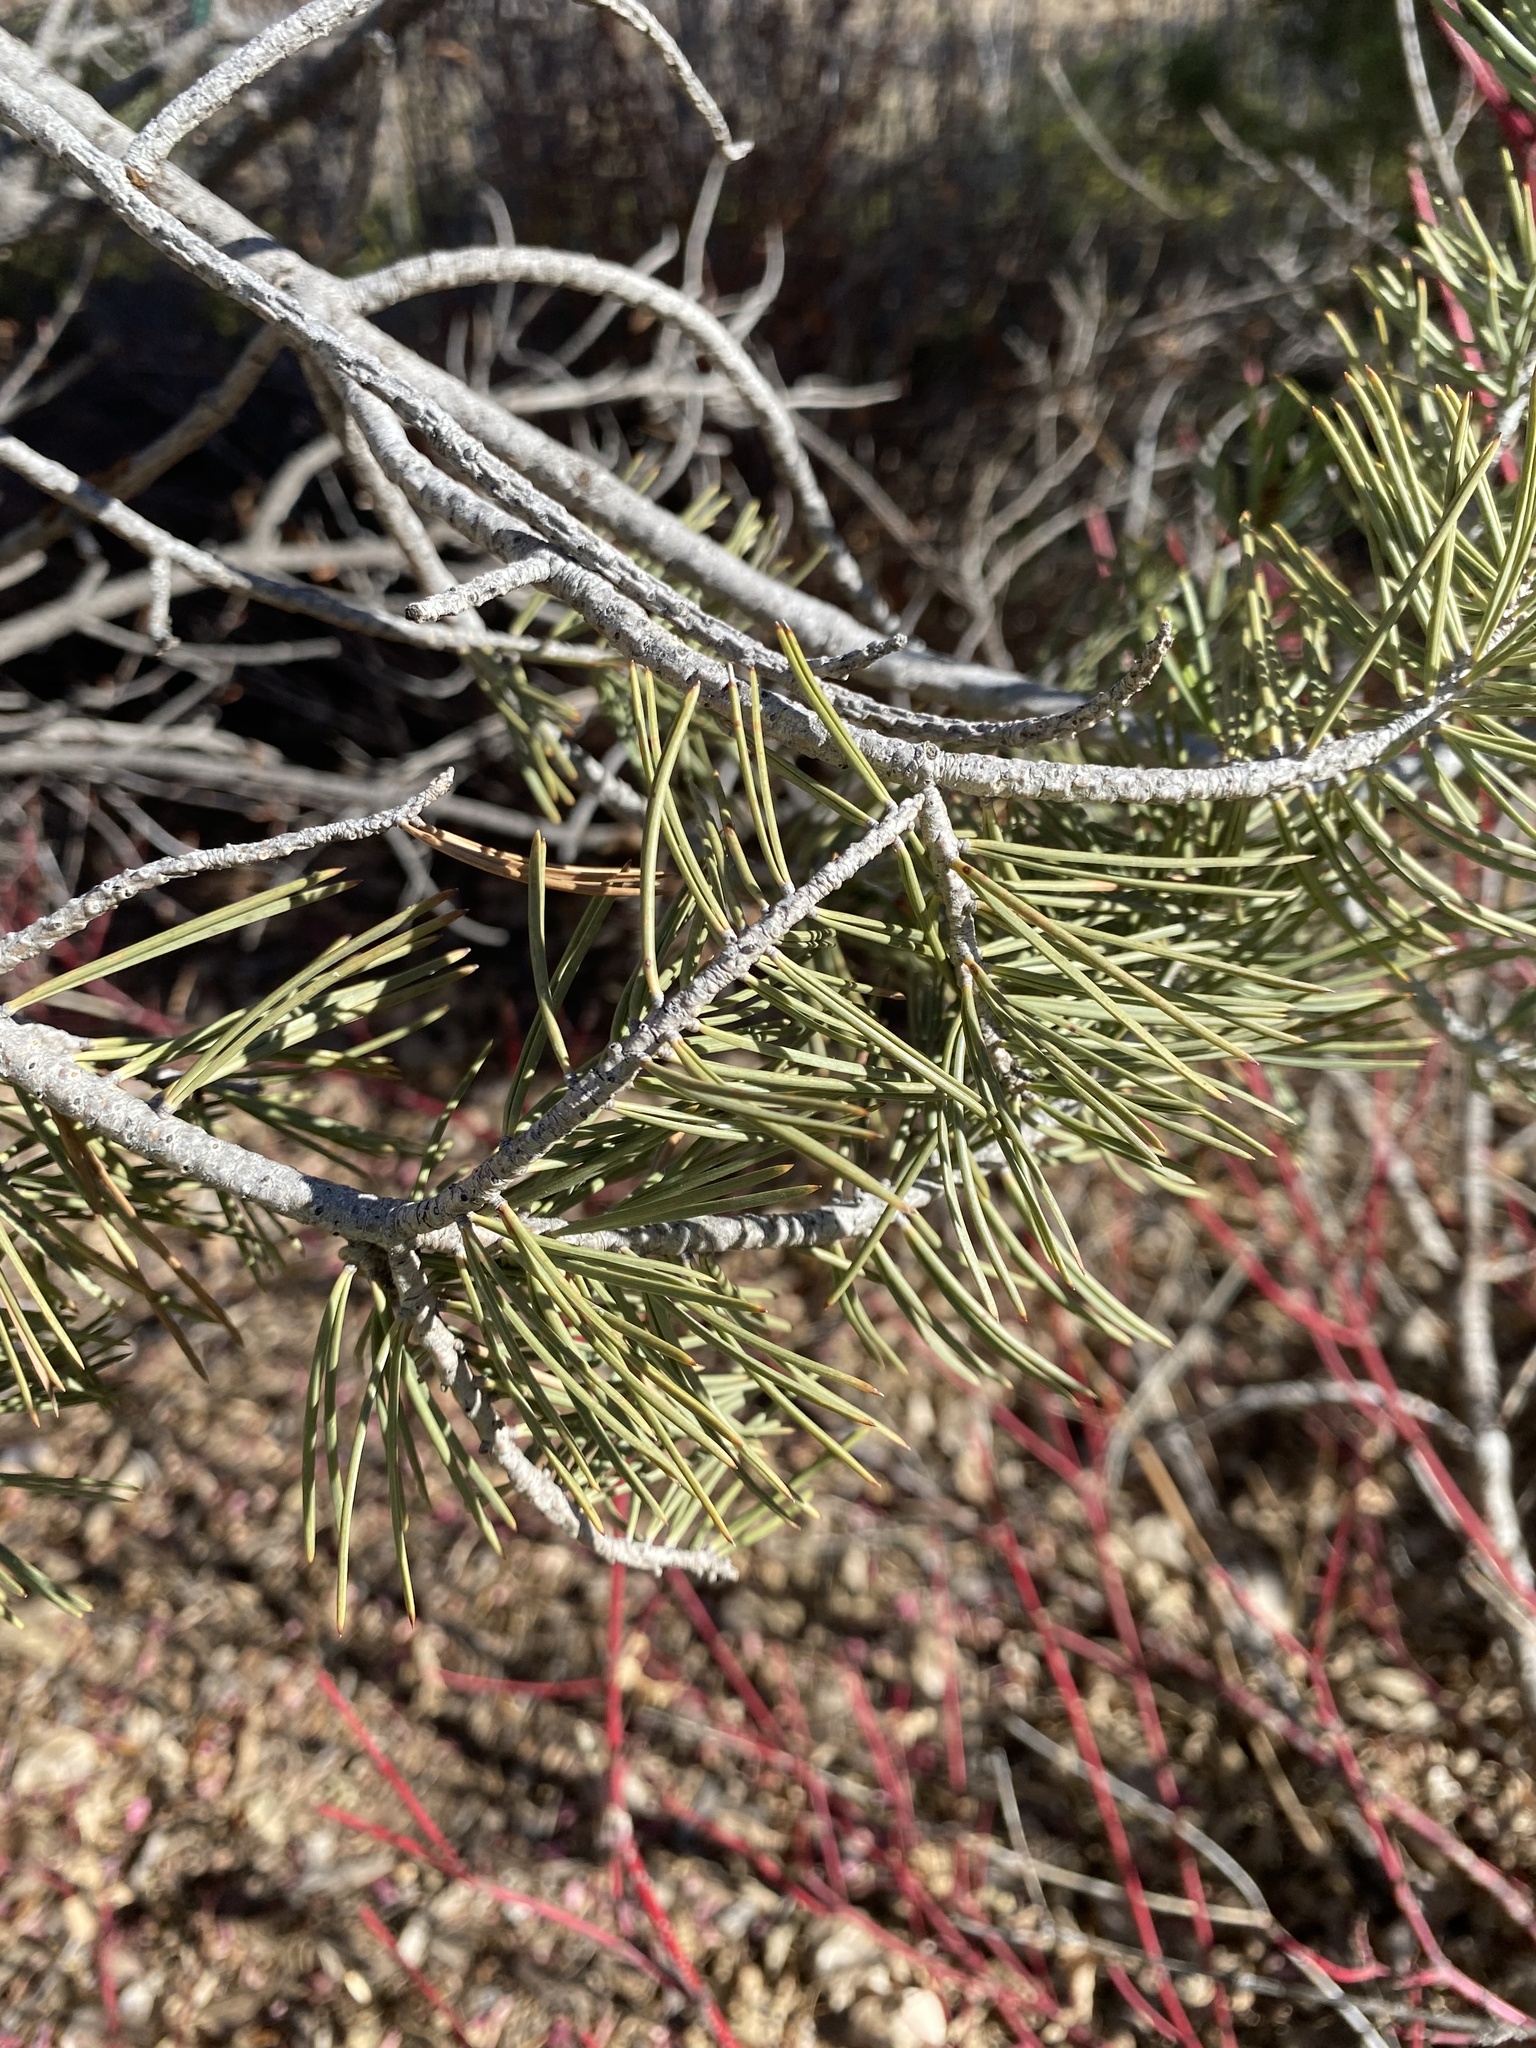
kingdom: Plantae
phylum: Tracheophyta
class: Pinopsida
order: Pinales
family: Pinaceae
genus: Pinus
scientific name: Pinus edulis
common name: Colorado pinyon
